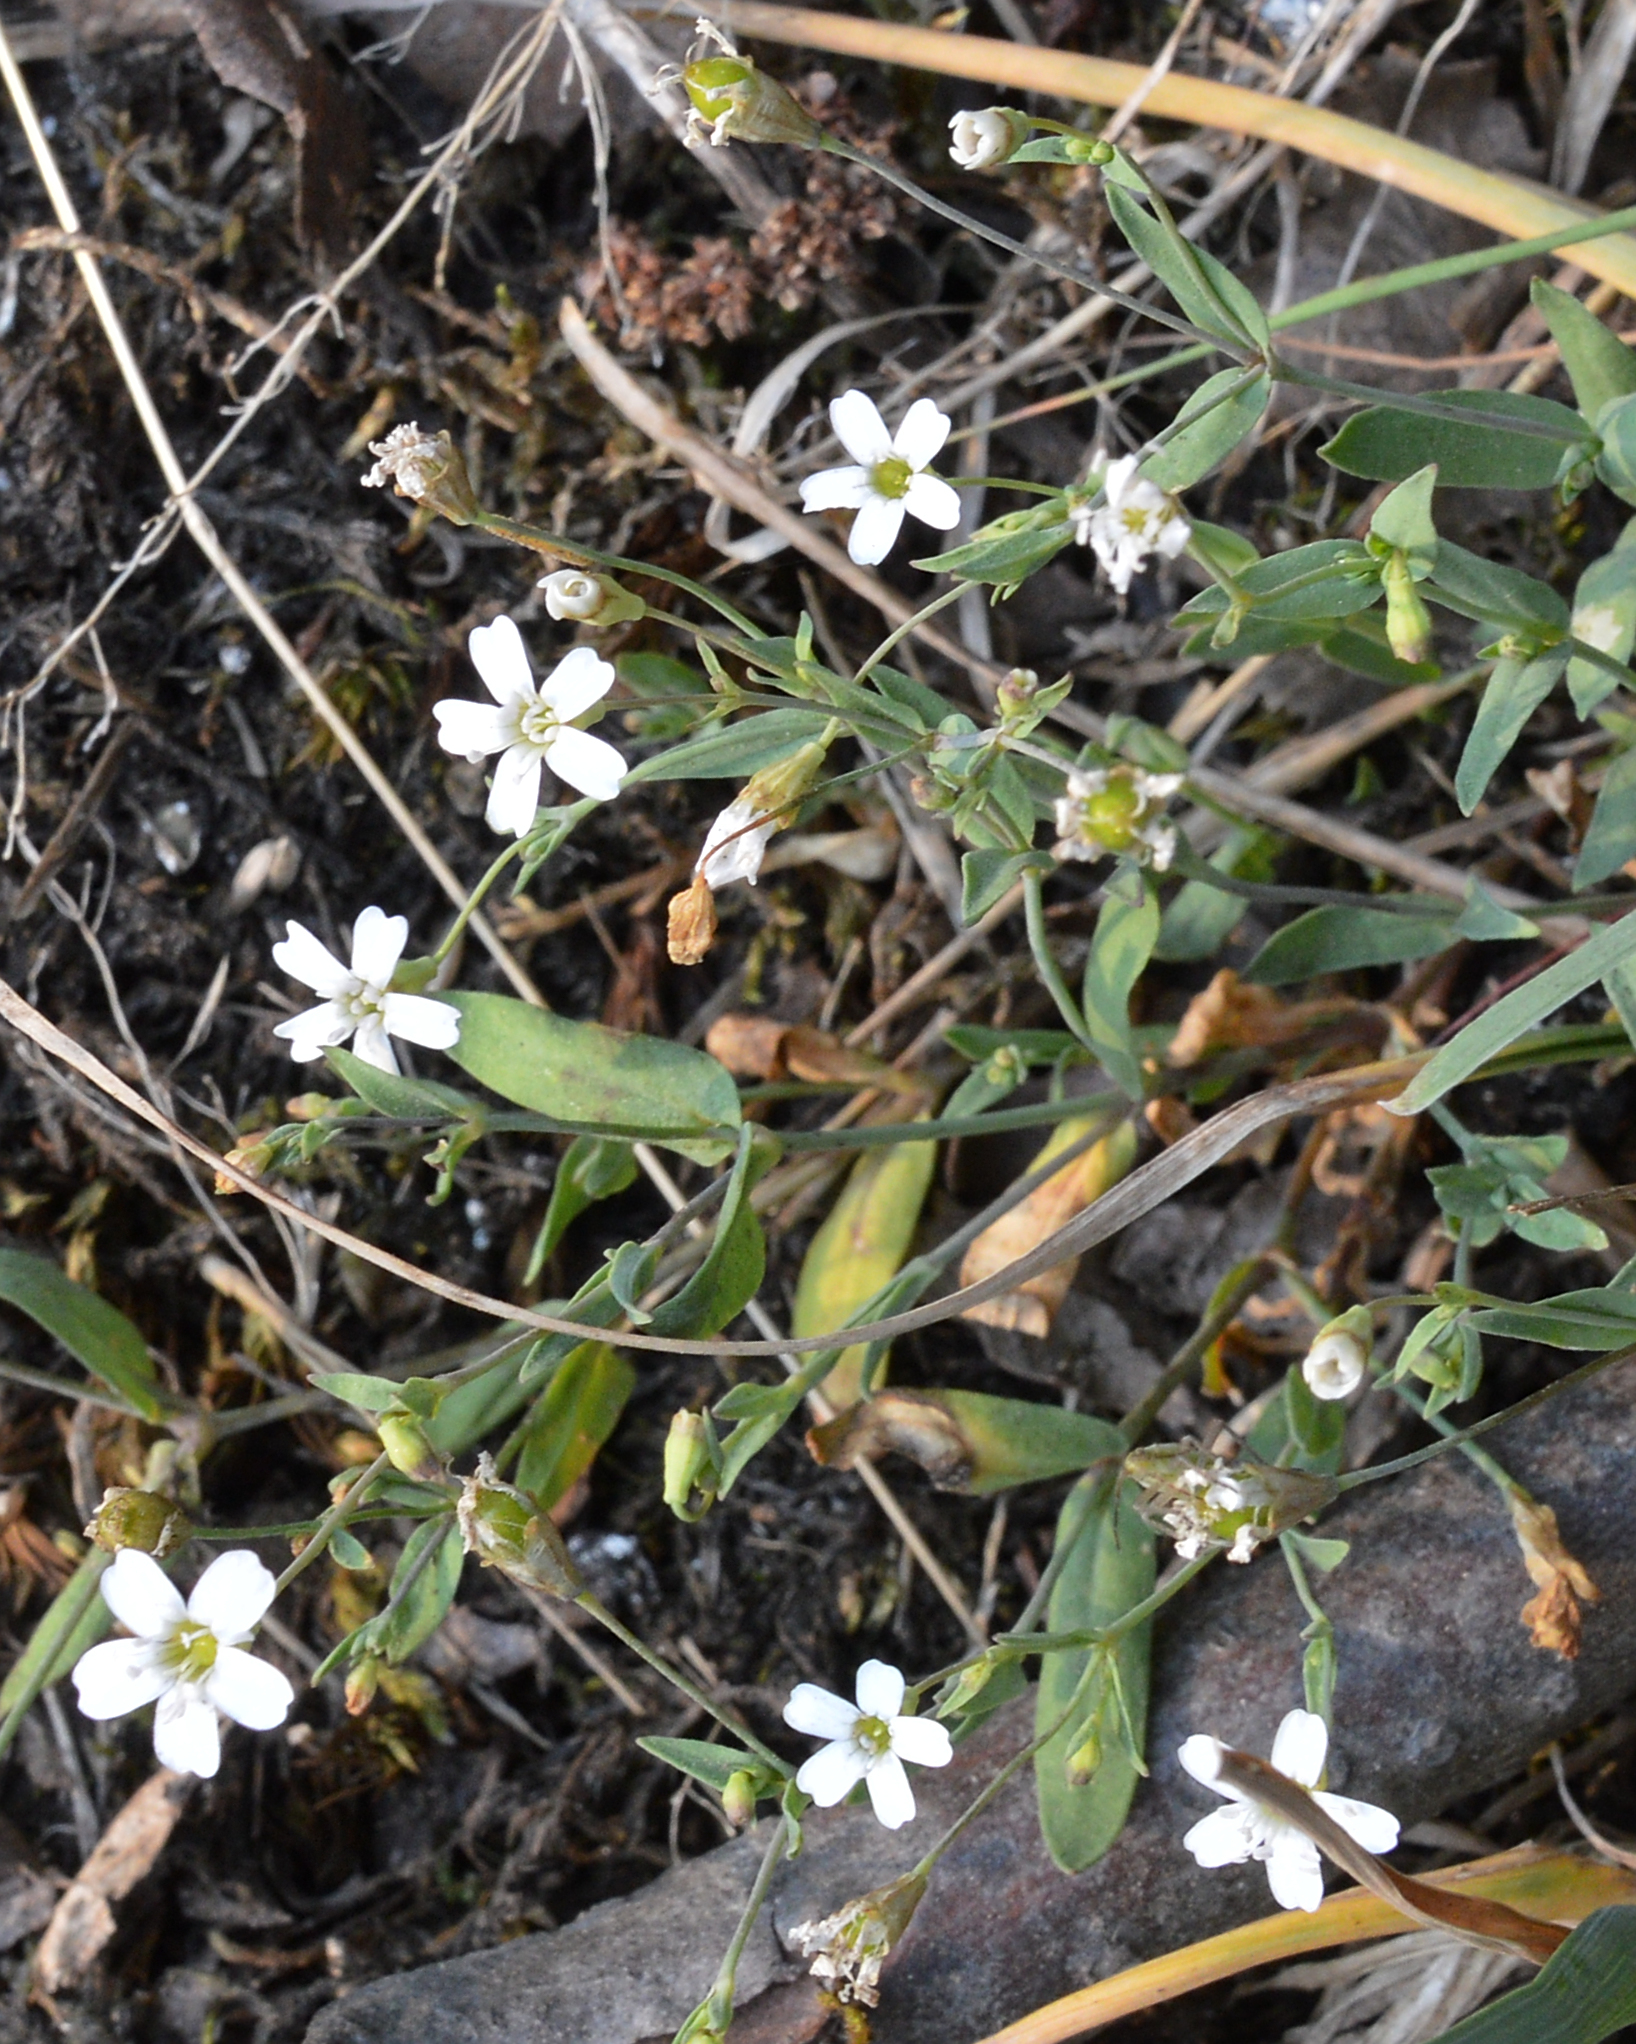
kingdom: Plantae
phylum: Tracheophyta
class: Magnoliopsida
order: Caryophyllales
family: Caryophyllaceae
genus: Atocion
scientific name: Atocion rupestre
